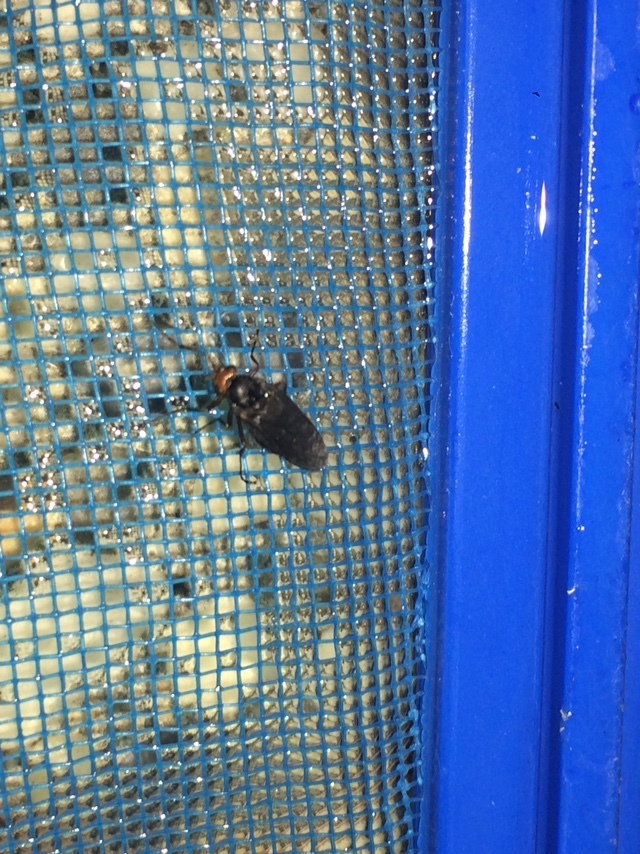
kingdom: Animalia
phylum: Arthropoda
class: Insecta
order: Diptera
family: Stratiomyidae
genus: Inopus
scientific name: Inopus rubriceps
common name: Soldier fly
